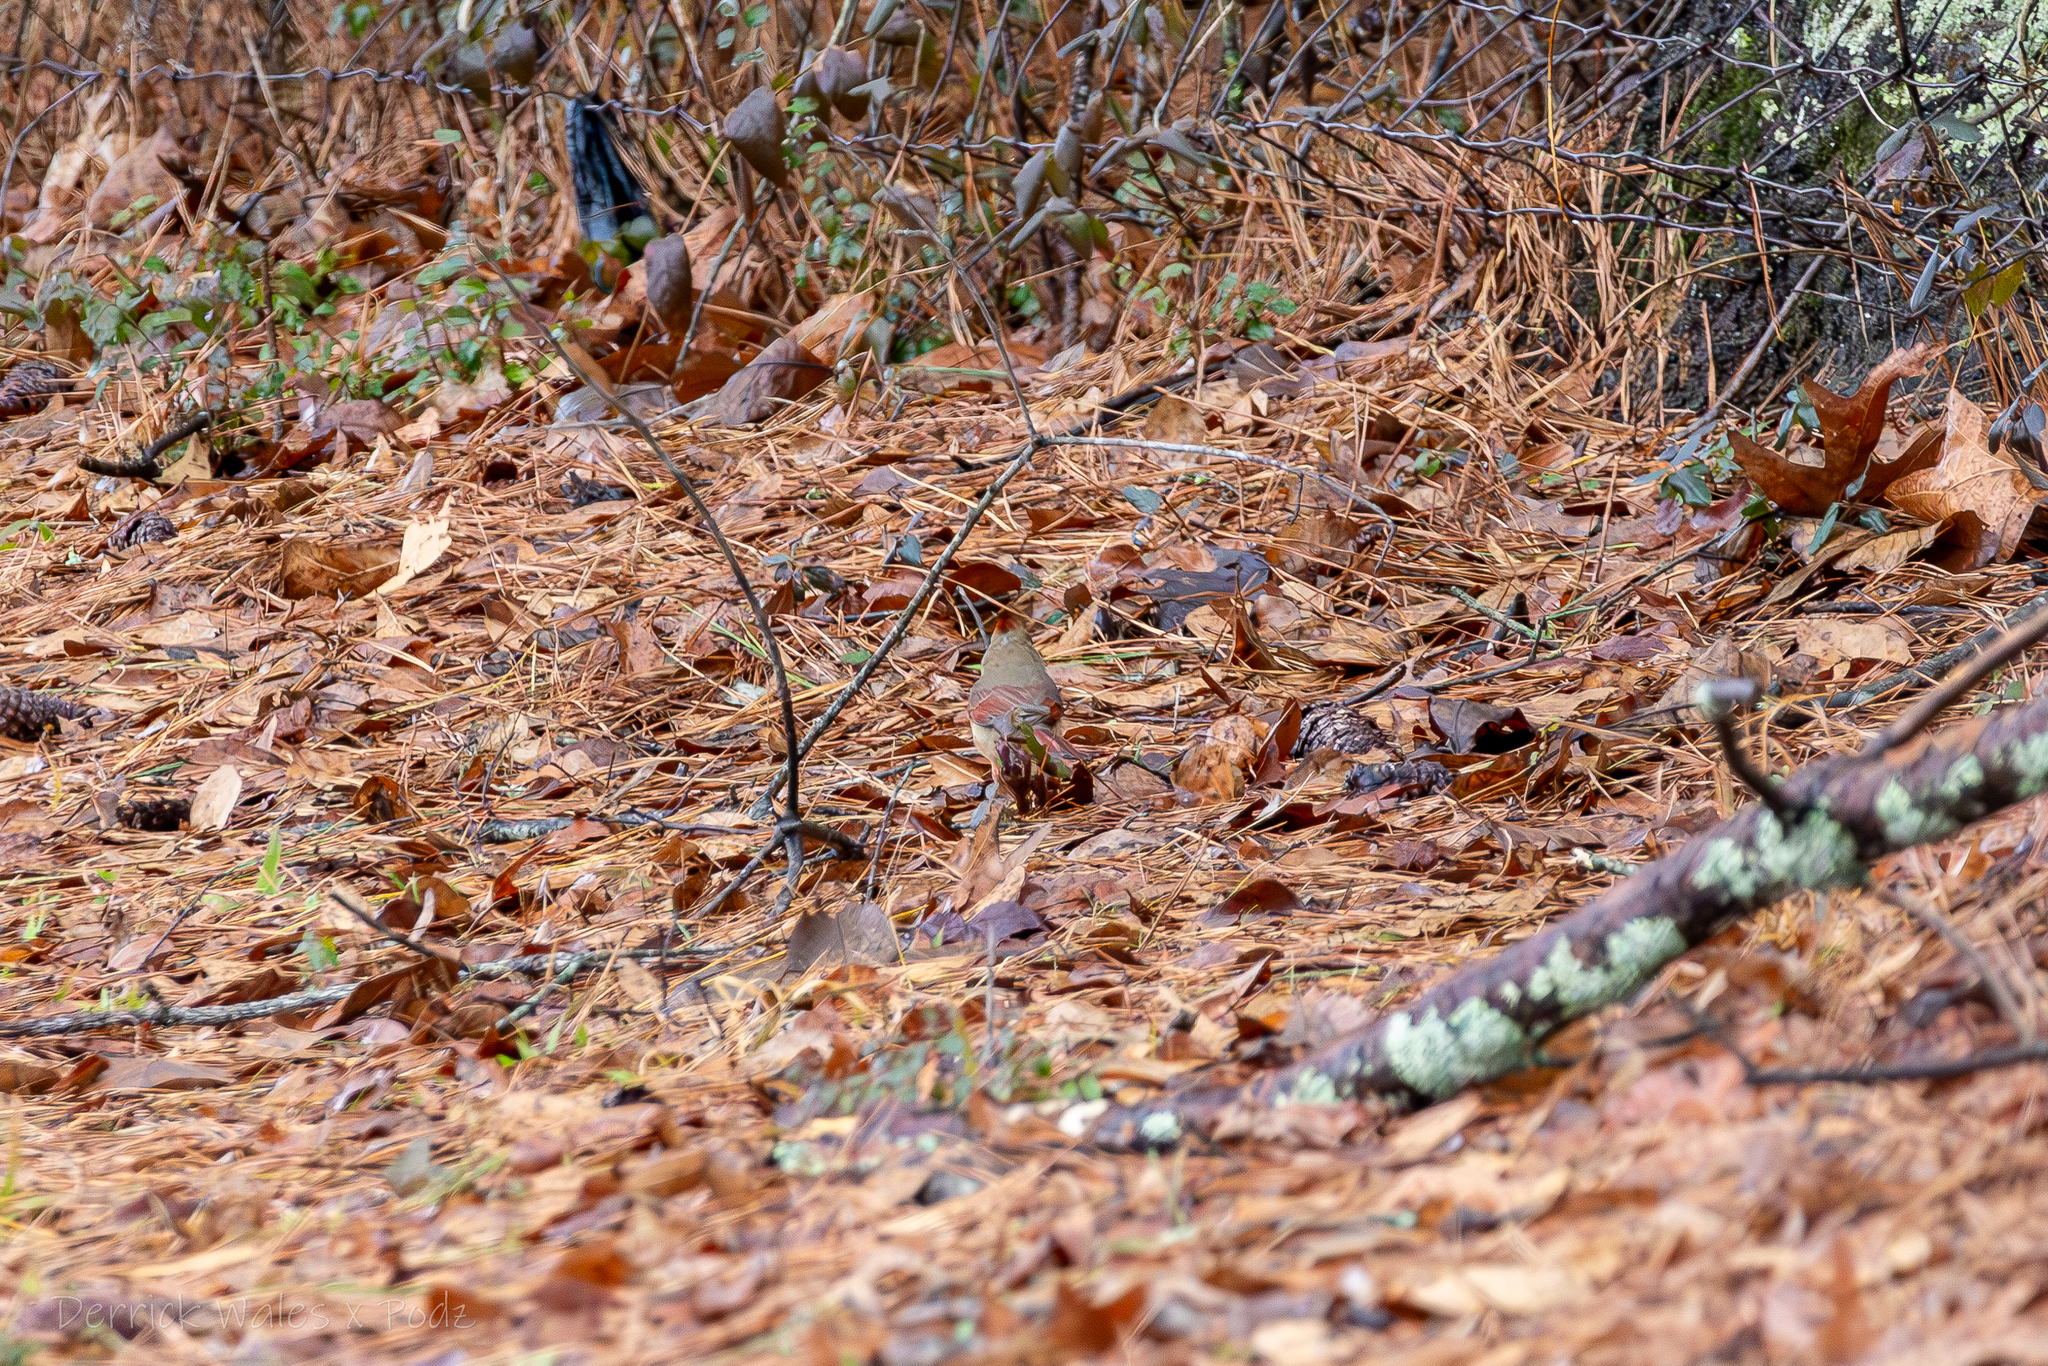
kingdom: Animalia
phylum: Chordata
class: Aves
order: Passeriformes
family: Cardinalidae
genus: Cardinalis
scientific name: Cardinalis cardinalis
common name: Northern cardinal
